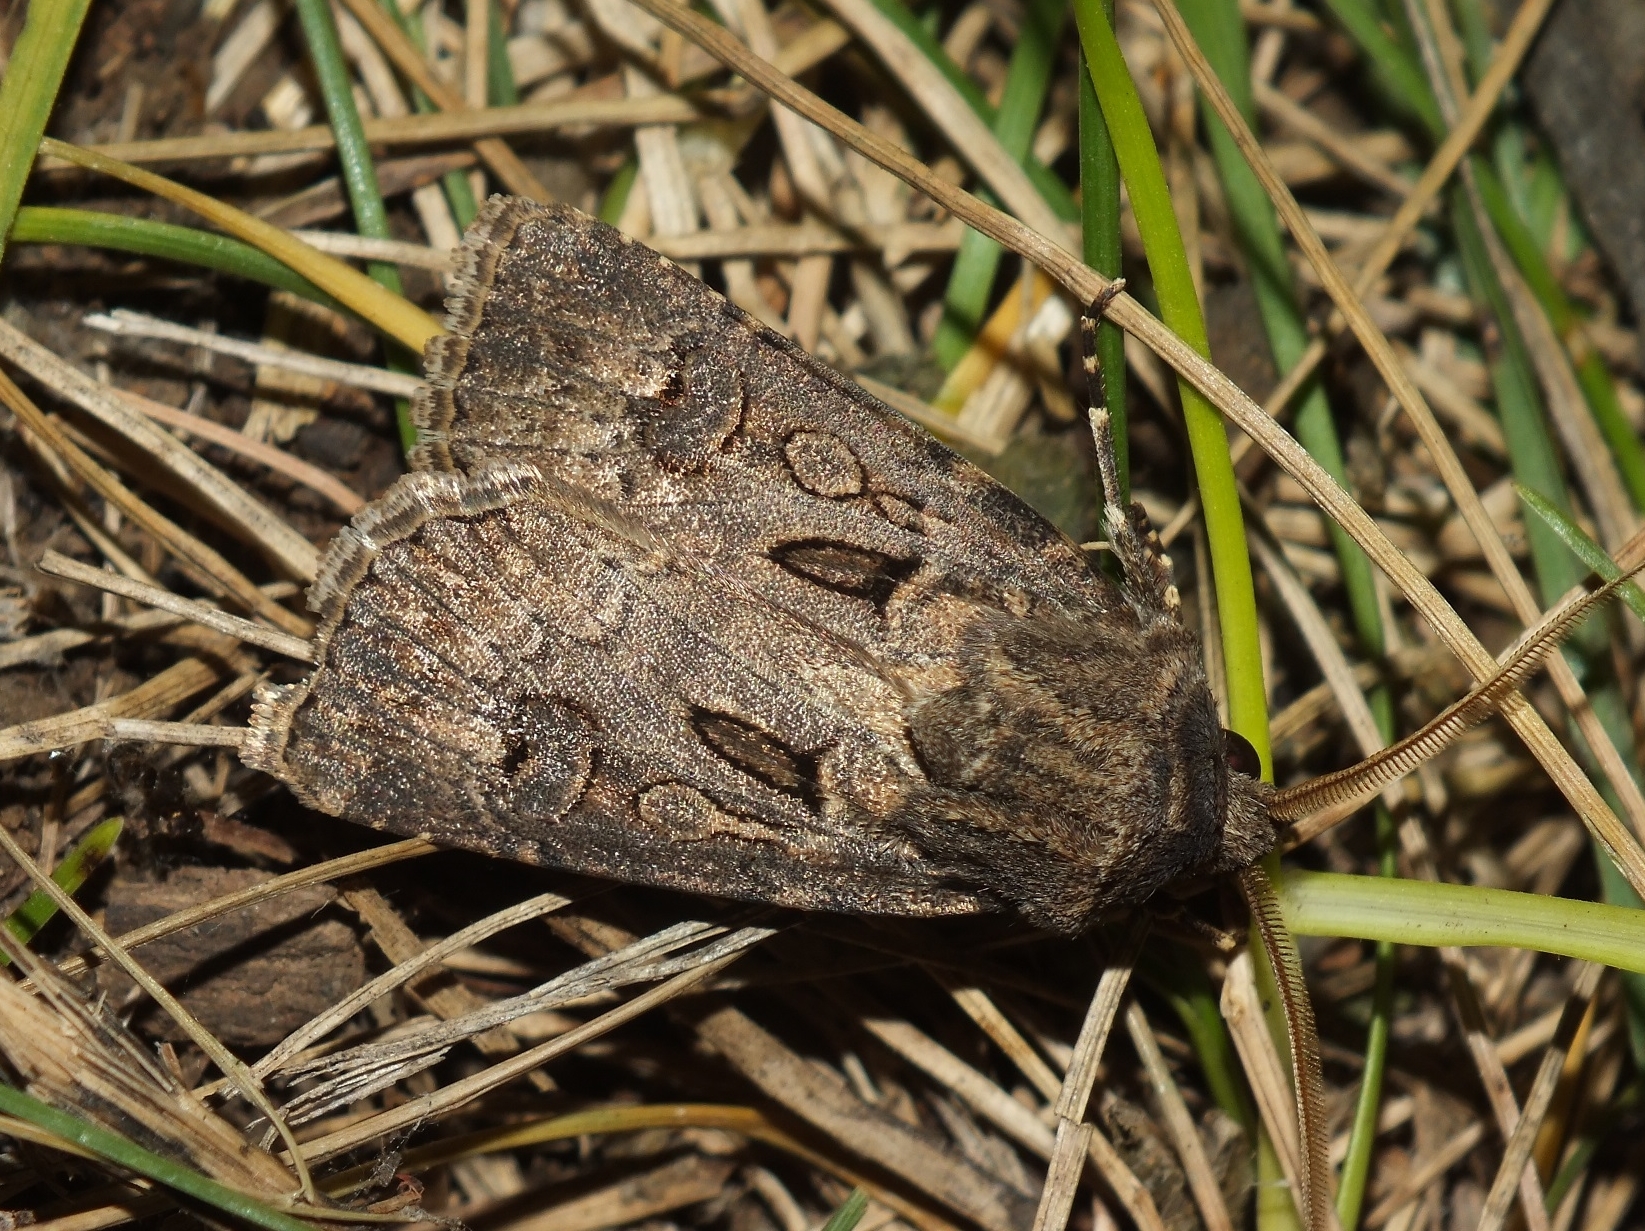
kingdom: Animalia
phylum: Arthropoda
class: Insecta
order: Lepidoptera
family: Noctuidae
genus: Agrotis
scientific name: Agrotis bigramma
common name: Great dart
